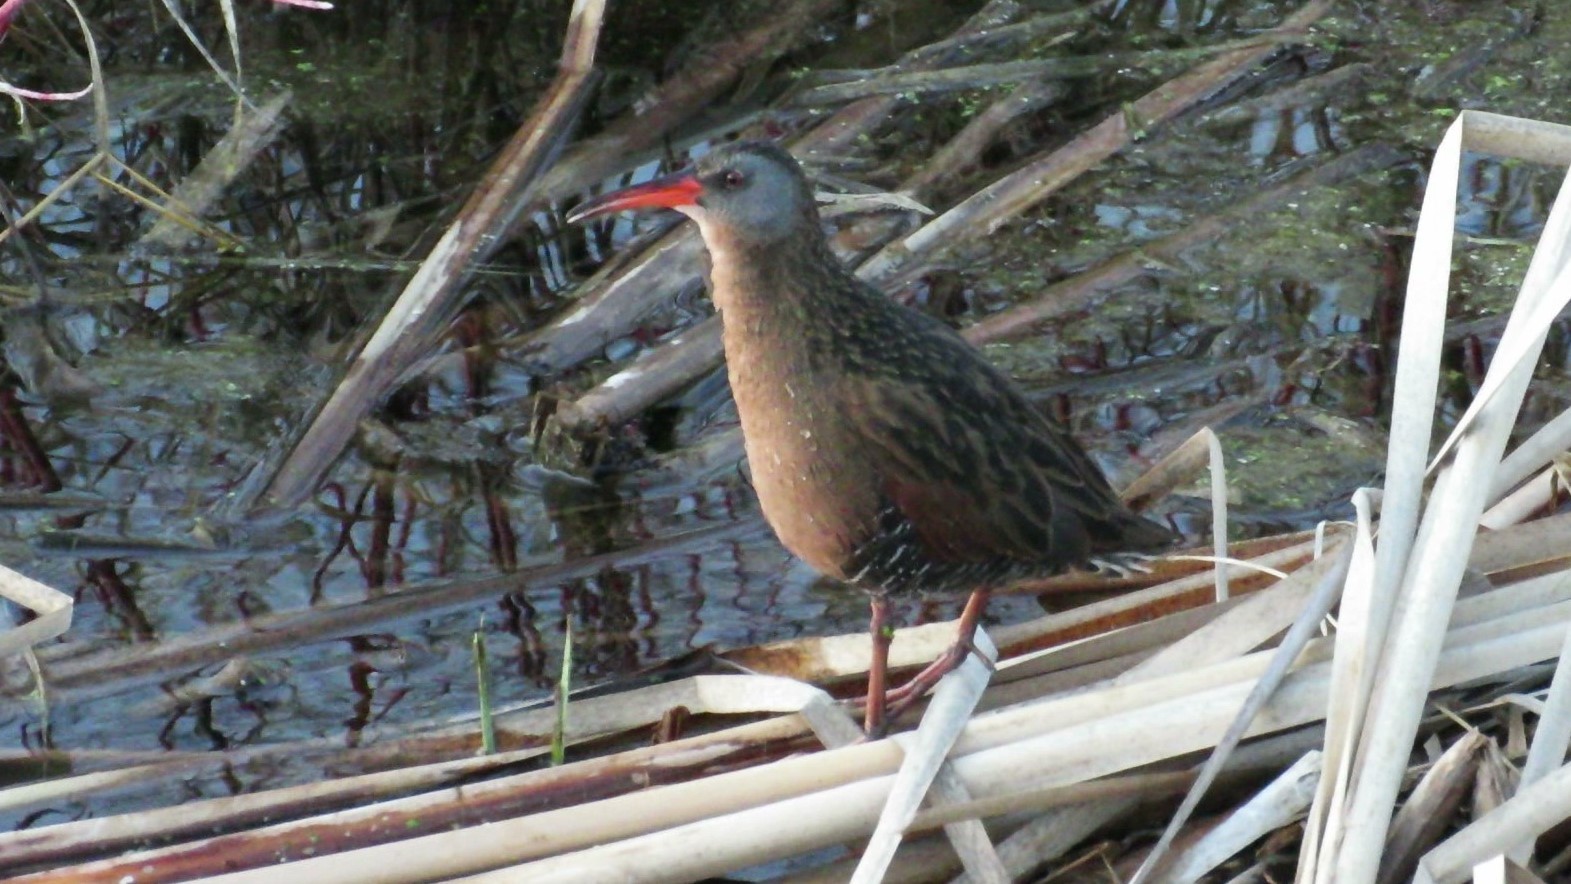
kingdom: Animalia
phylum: Chordata
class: Aves
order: Gruiformes
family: Rallidae
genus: Rallus
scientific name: Rallus limicola
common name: Virginia rail
